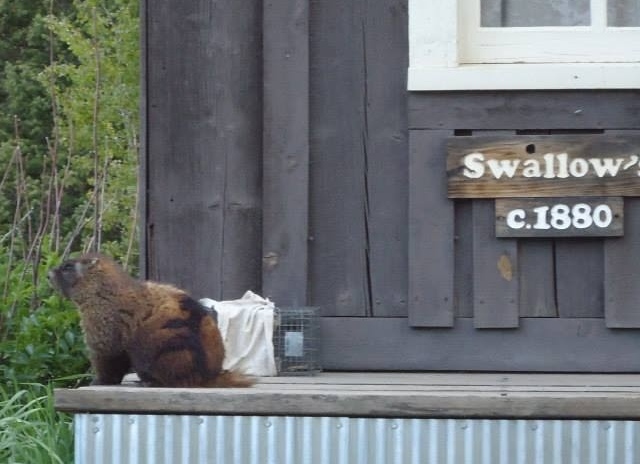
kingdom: Animalia
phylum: Chordata
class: Mammalia
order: Rodentia
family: Sciuridae
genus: Marmota
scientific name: Marmota flaviventris
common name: Yellow-bellied marmot
